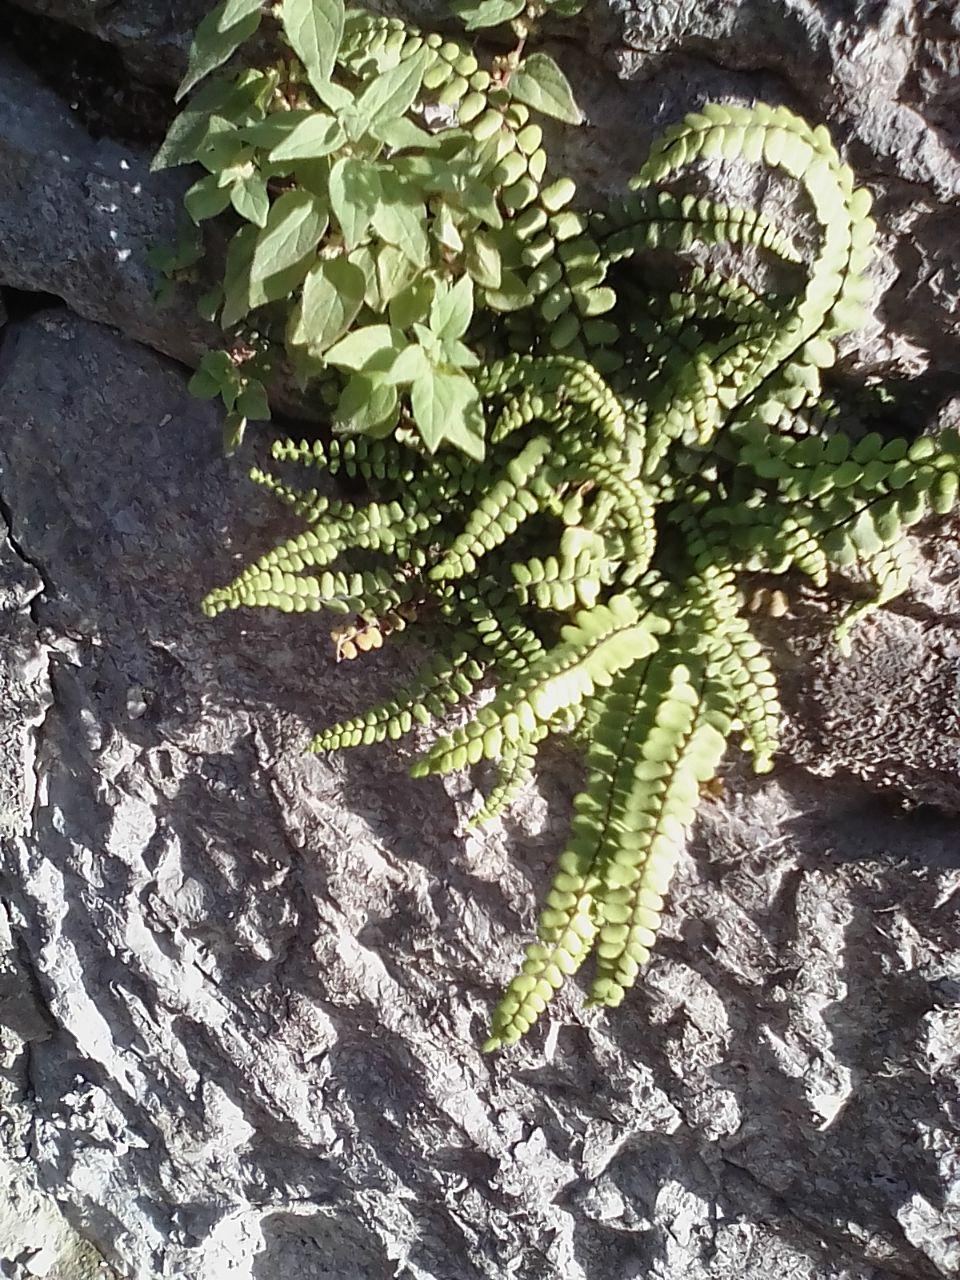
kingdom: Plantae
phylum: Tracheophyta
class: Polypodiopsida
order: Polypodiales
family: Aspleniaceae
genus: Asplenium
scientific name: Asplenium trichomanes
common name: Maidenhair spleenwort
